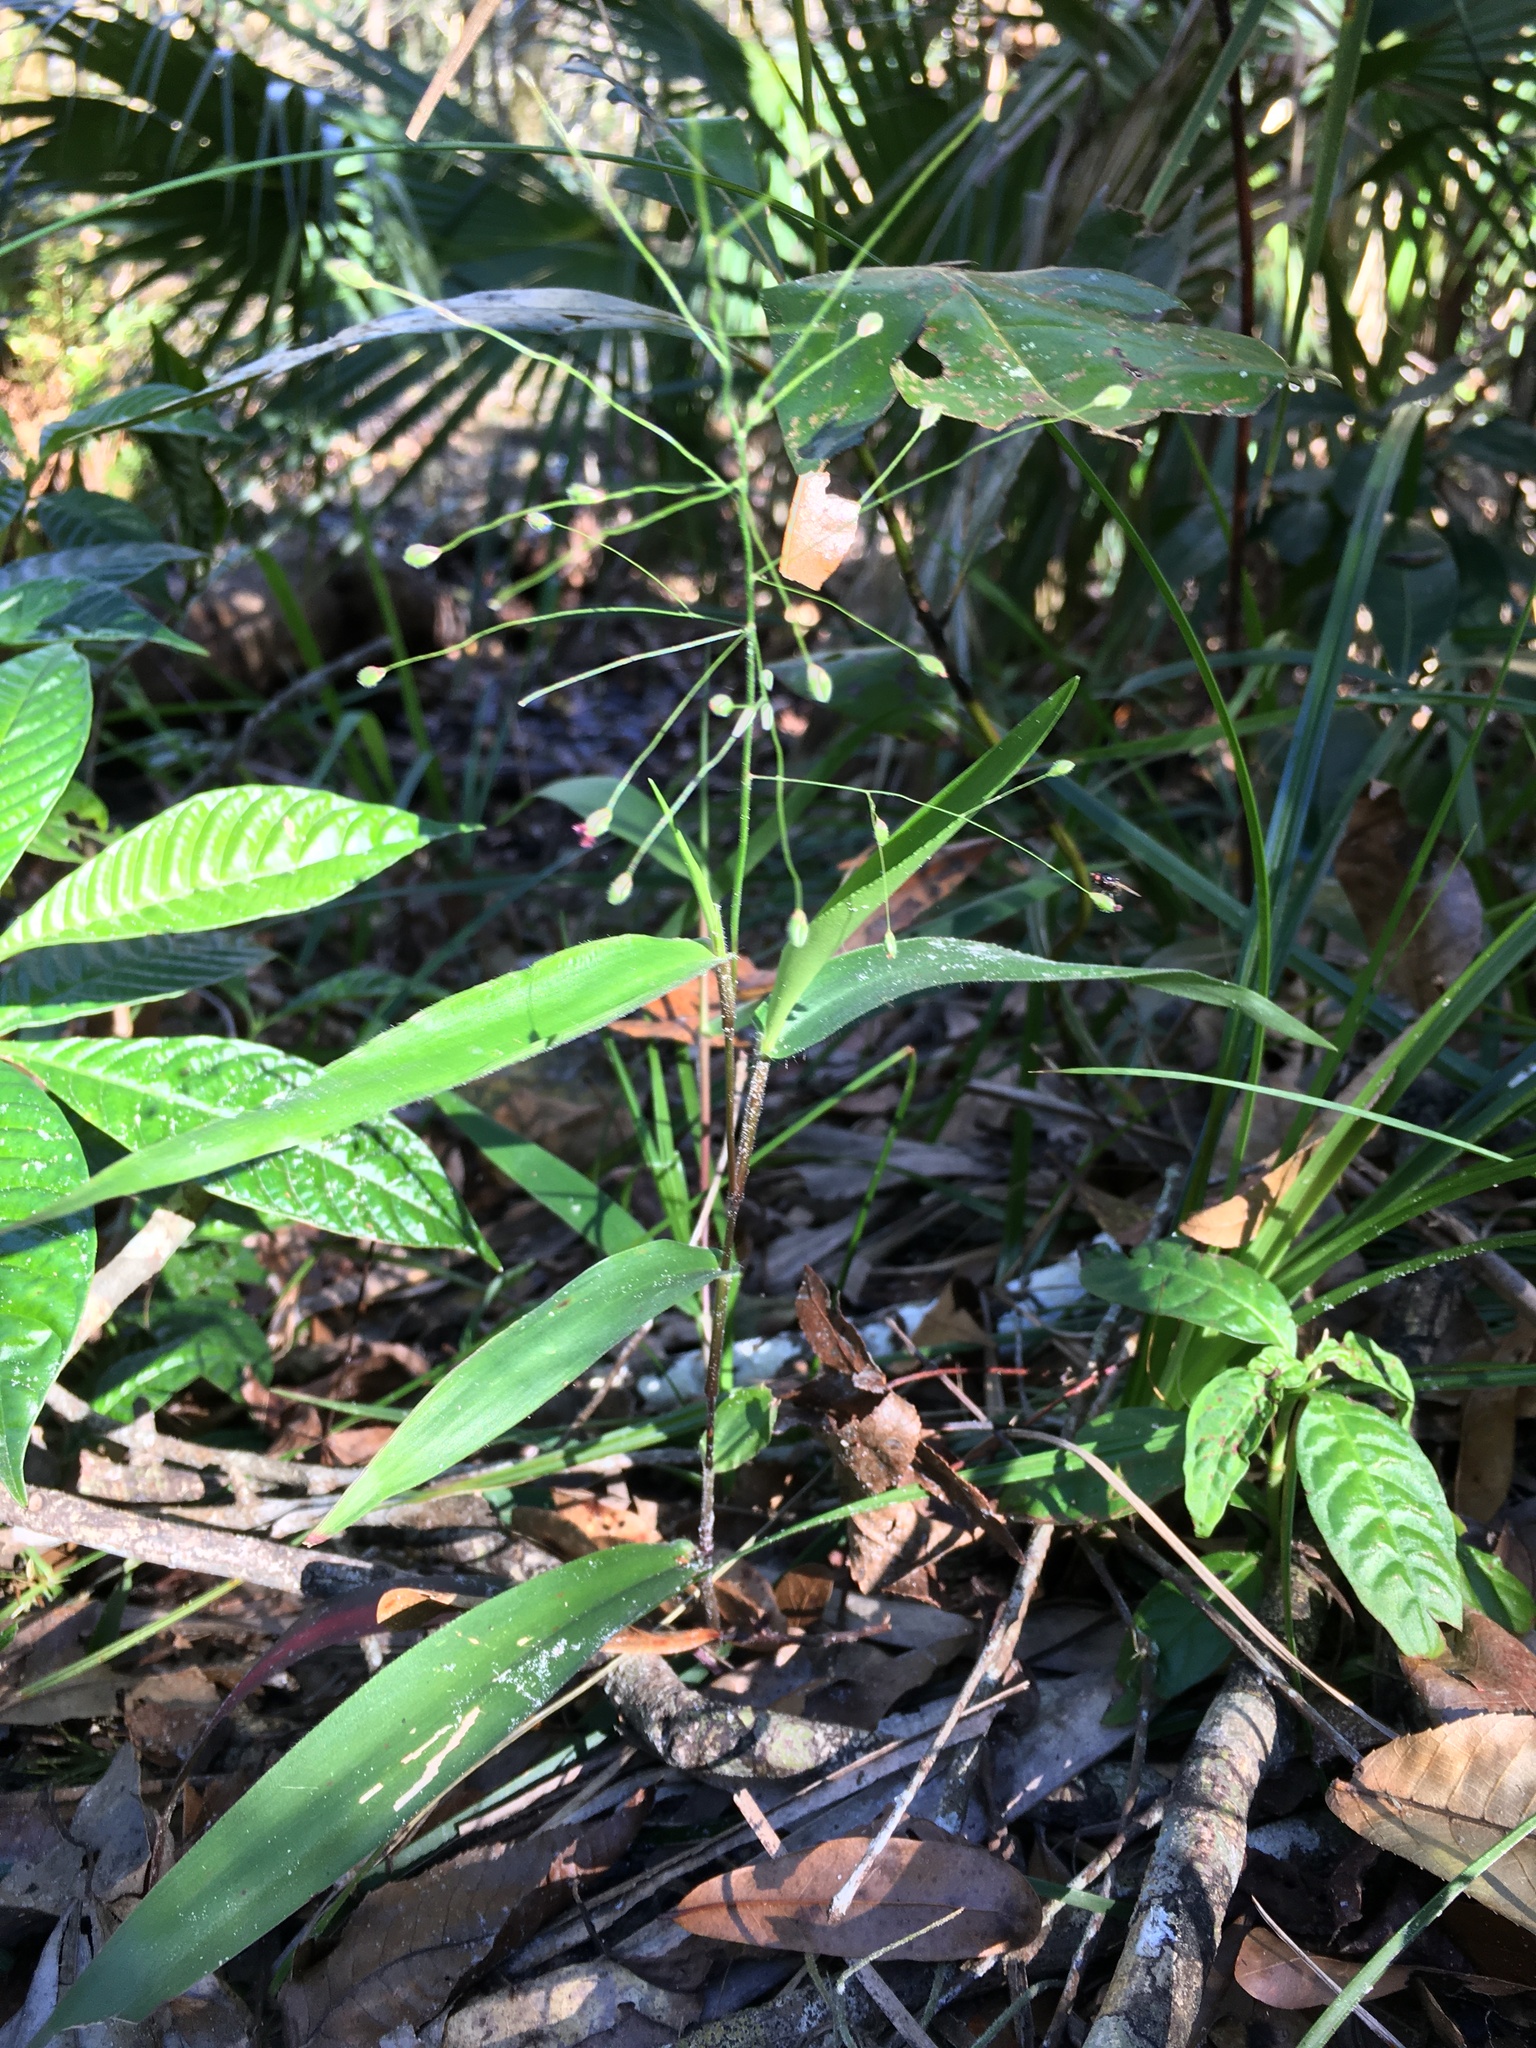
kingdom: Plantae
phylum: Tracheophyta
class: Liliopsida
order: Poales
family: Poaceae
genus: Dichanthelium
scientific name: Dichanthelium commutatum
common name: Variable witchgrass
